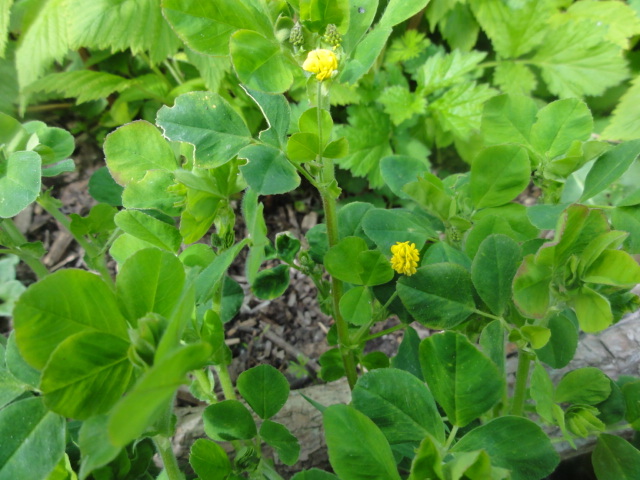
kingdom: Plantae
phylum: Tracheophyta
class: Magnoliopsida
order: Fabales
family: Fabaceae
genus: Medicago
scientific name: Medicago lupulina
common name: Black medick
